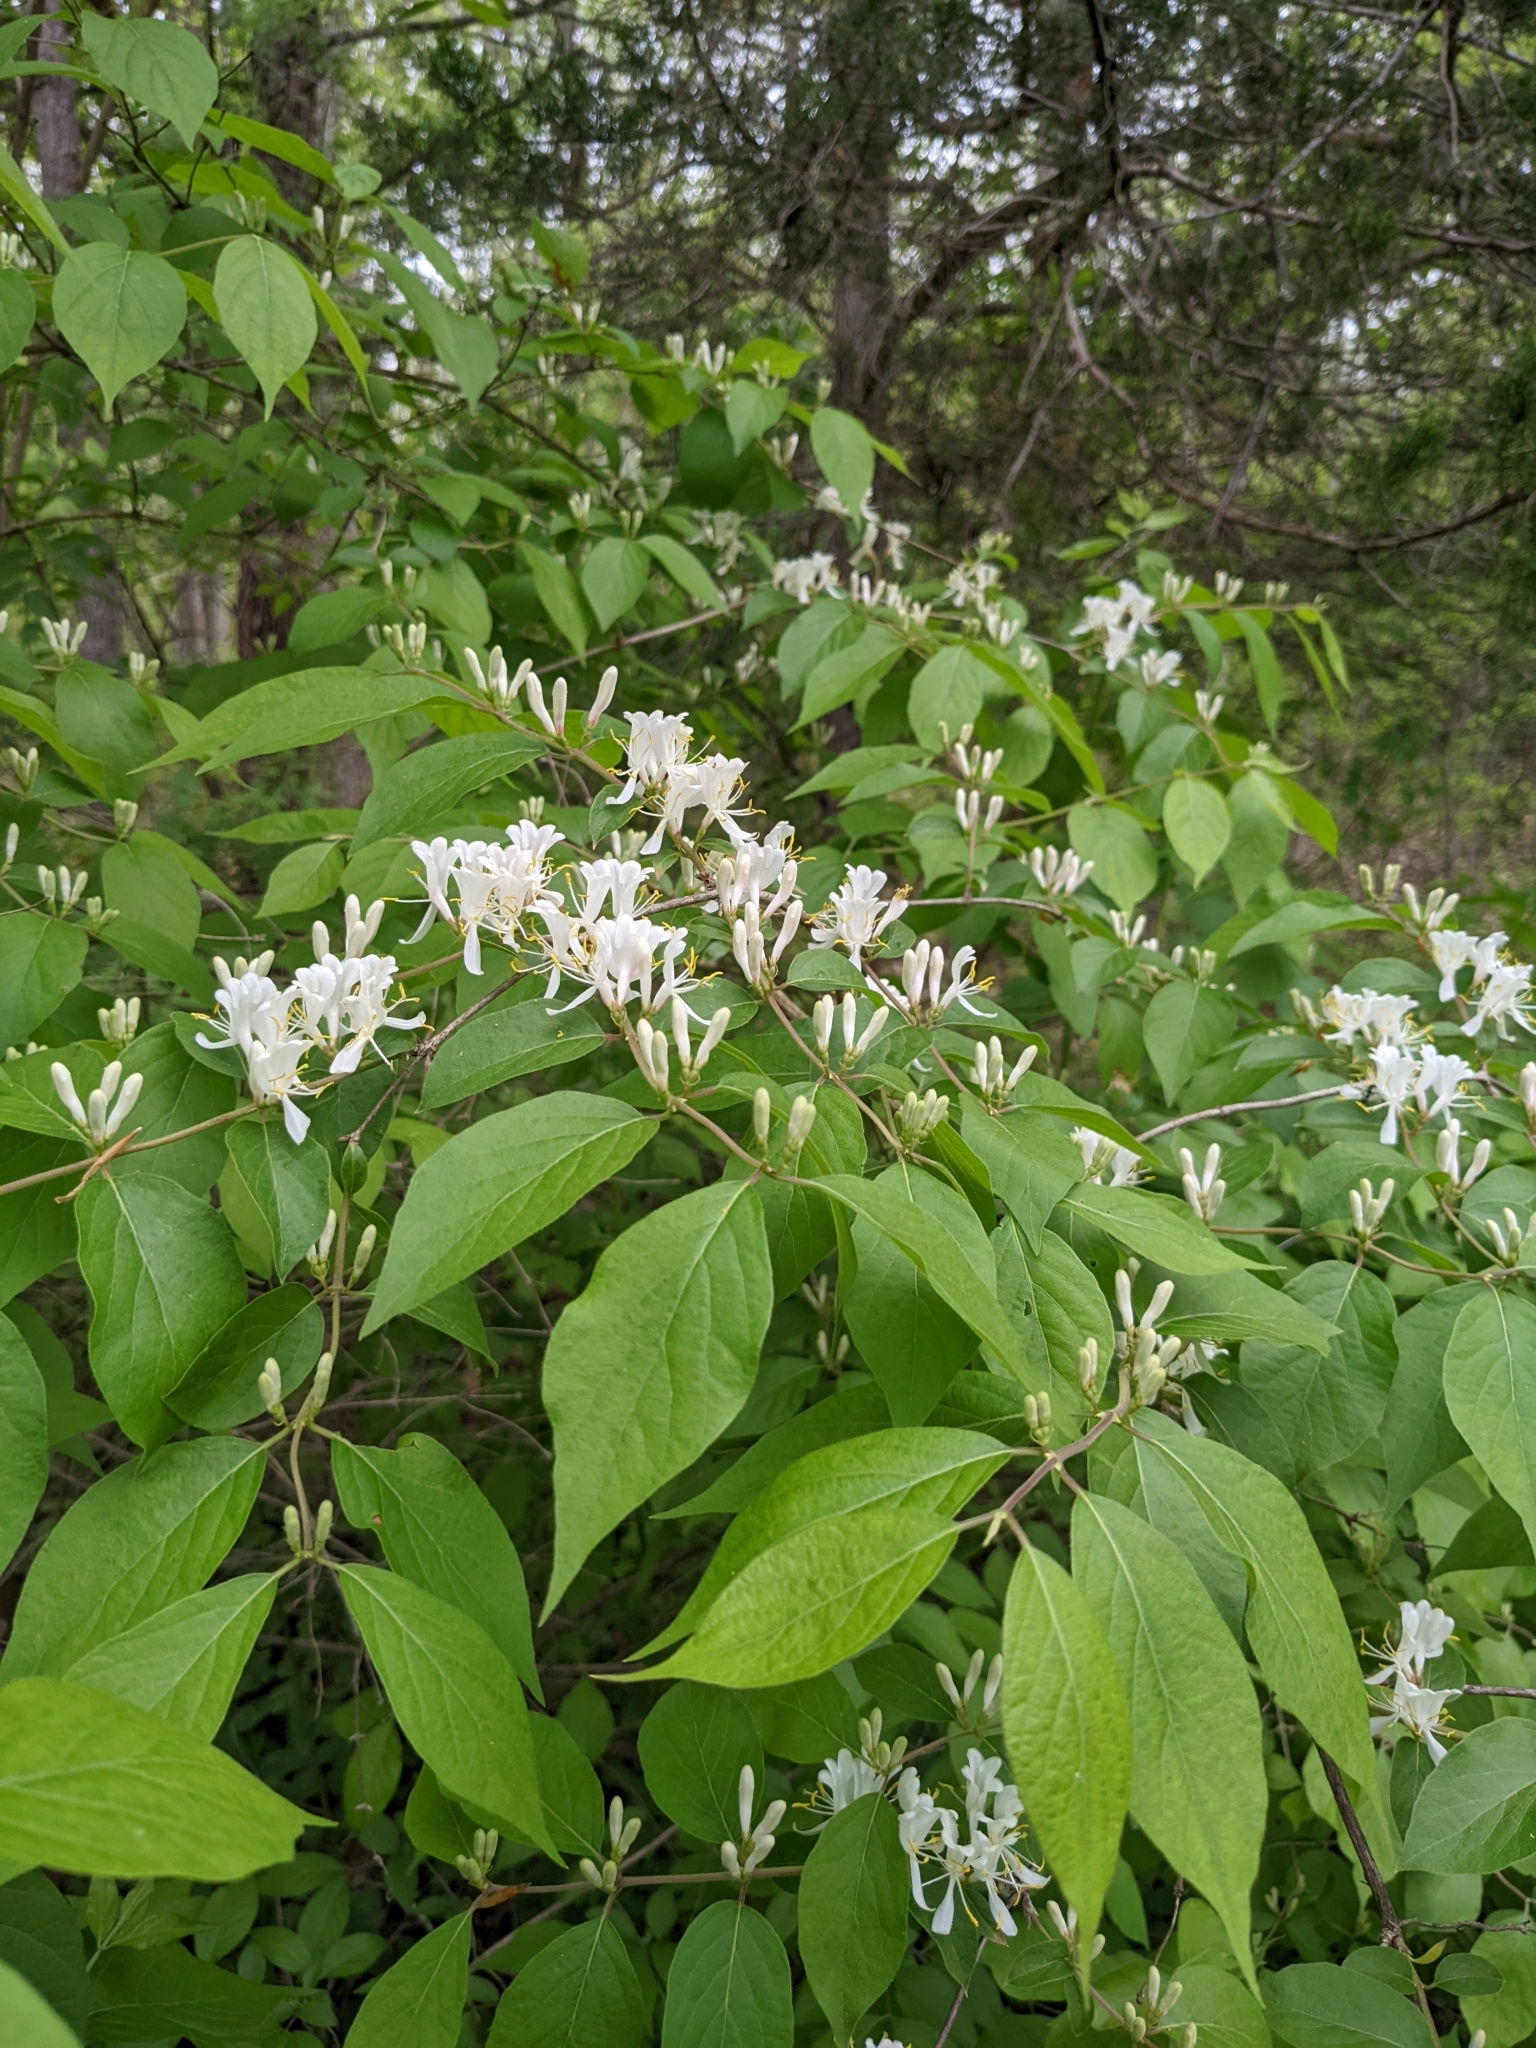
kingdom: Plantae
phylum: Tracheophyta
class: Magnoliopsida
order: Dipsacales
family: Caprifoliaceae
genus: Lonicera
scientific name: Lonicera maackii
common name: Amur honeysuckle
